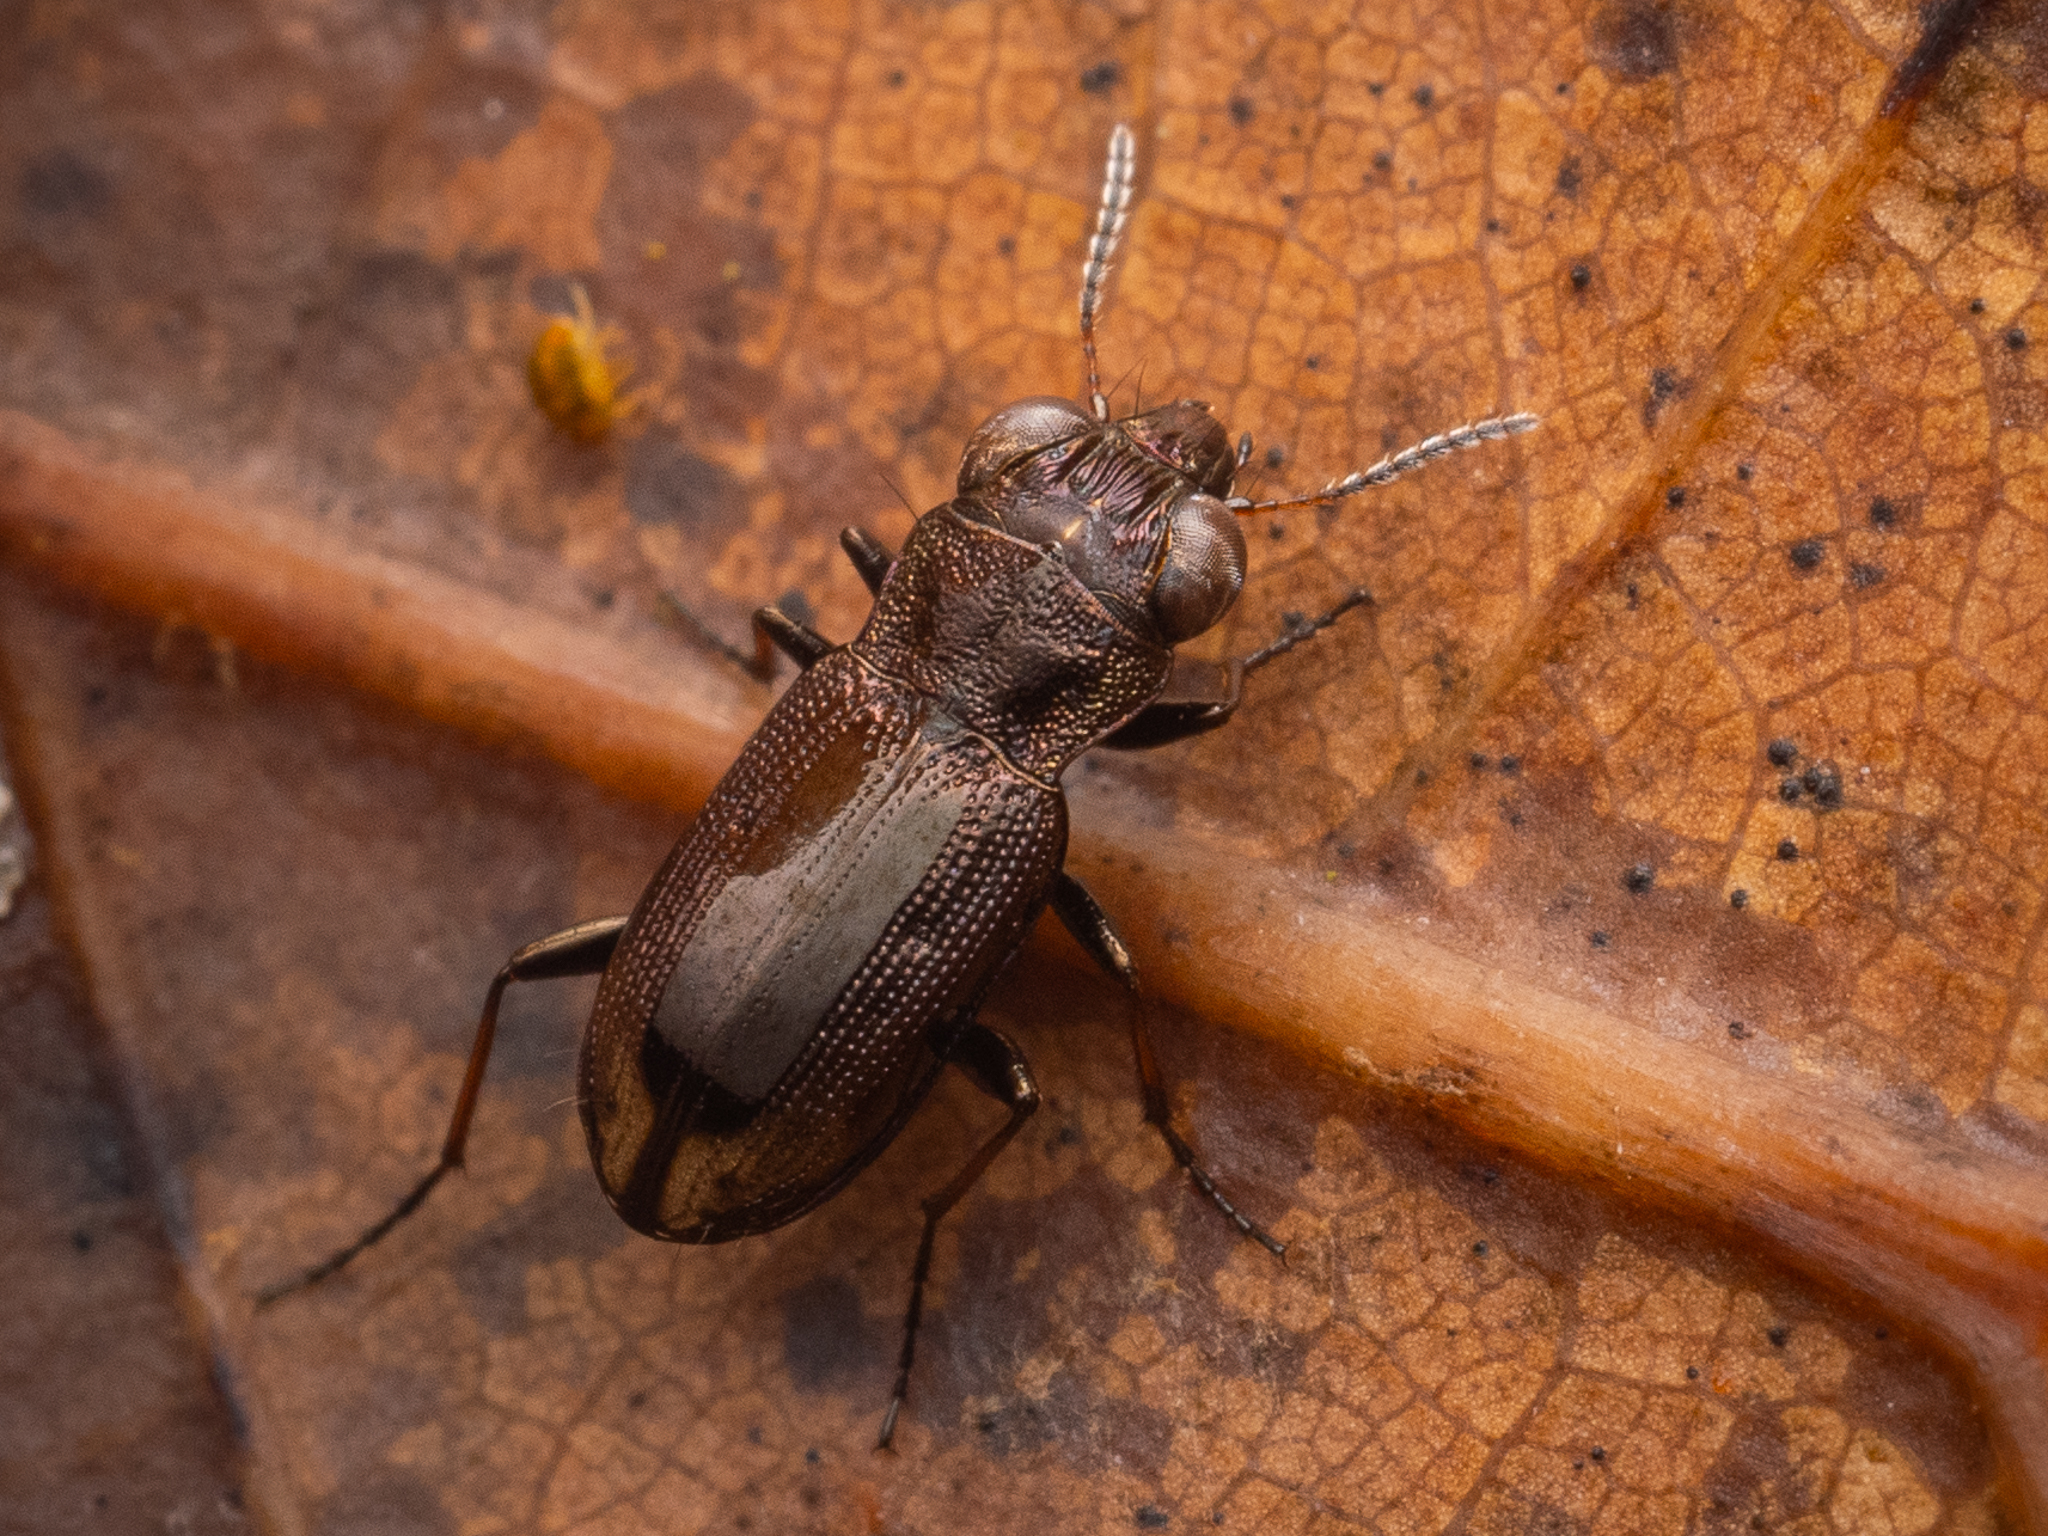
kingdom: Animalia
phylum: Arthropoda
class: Insecta
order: Coleoptera
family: Carabidae
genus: Notiophilus
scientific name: Notiophilus biguttatus
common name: Spotted gazelle beetle
